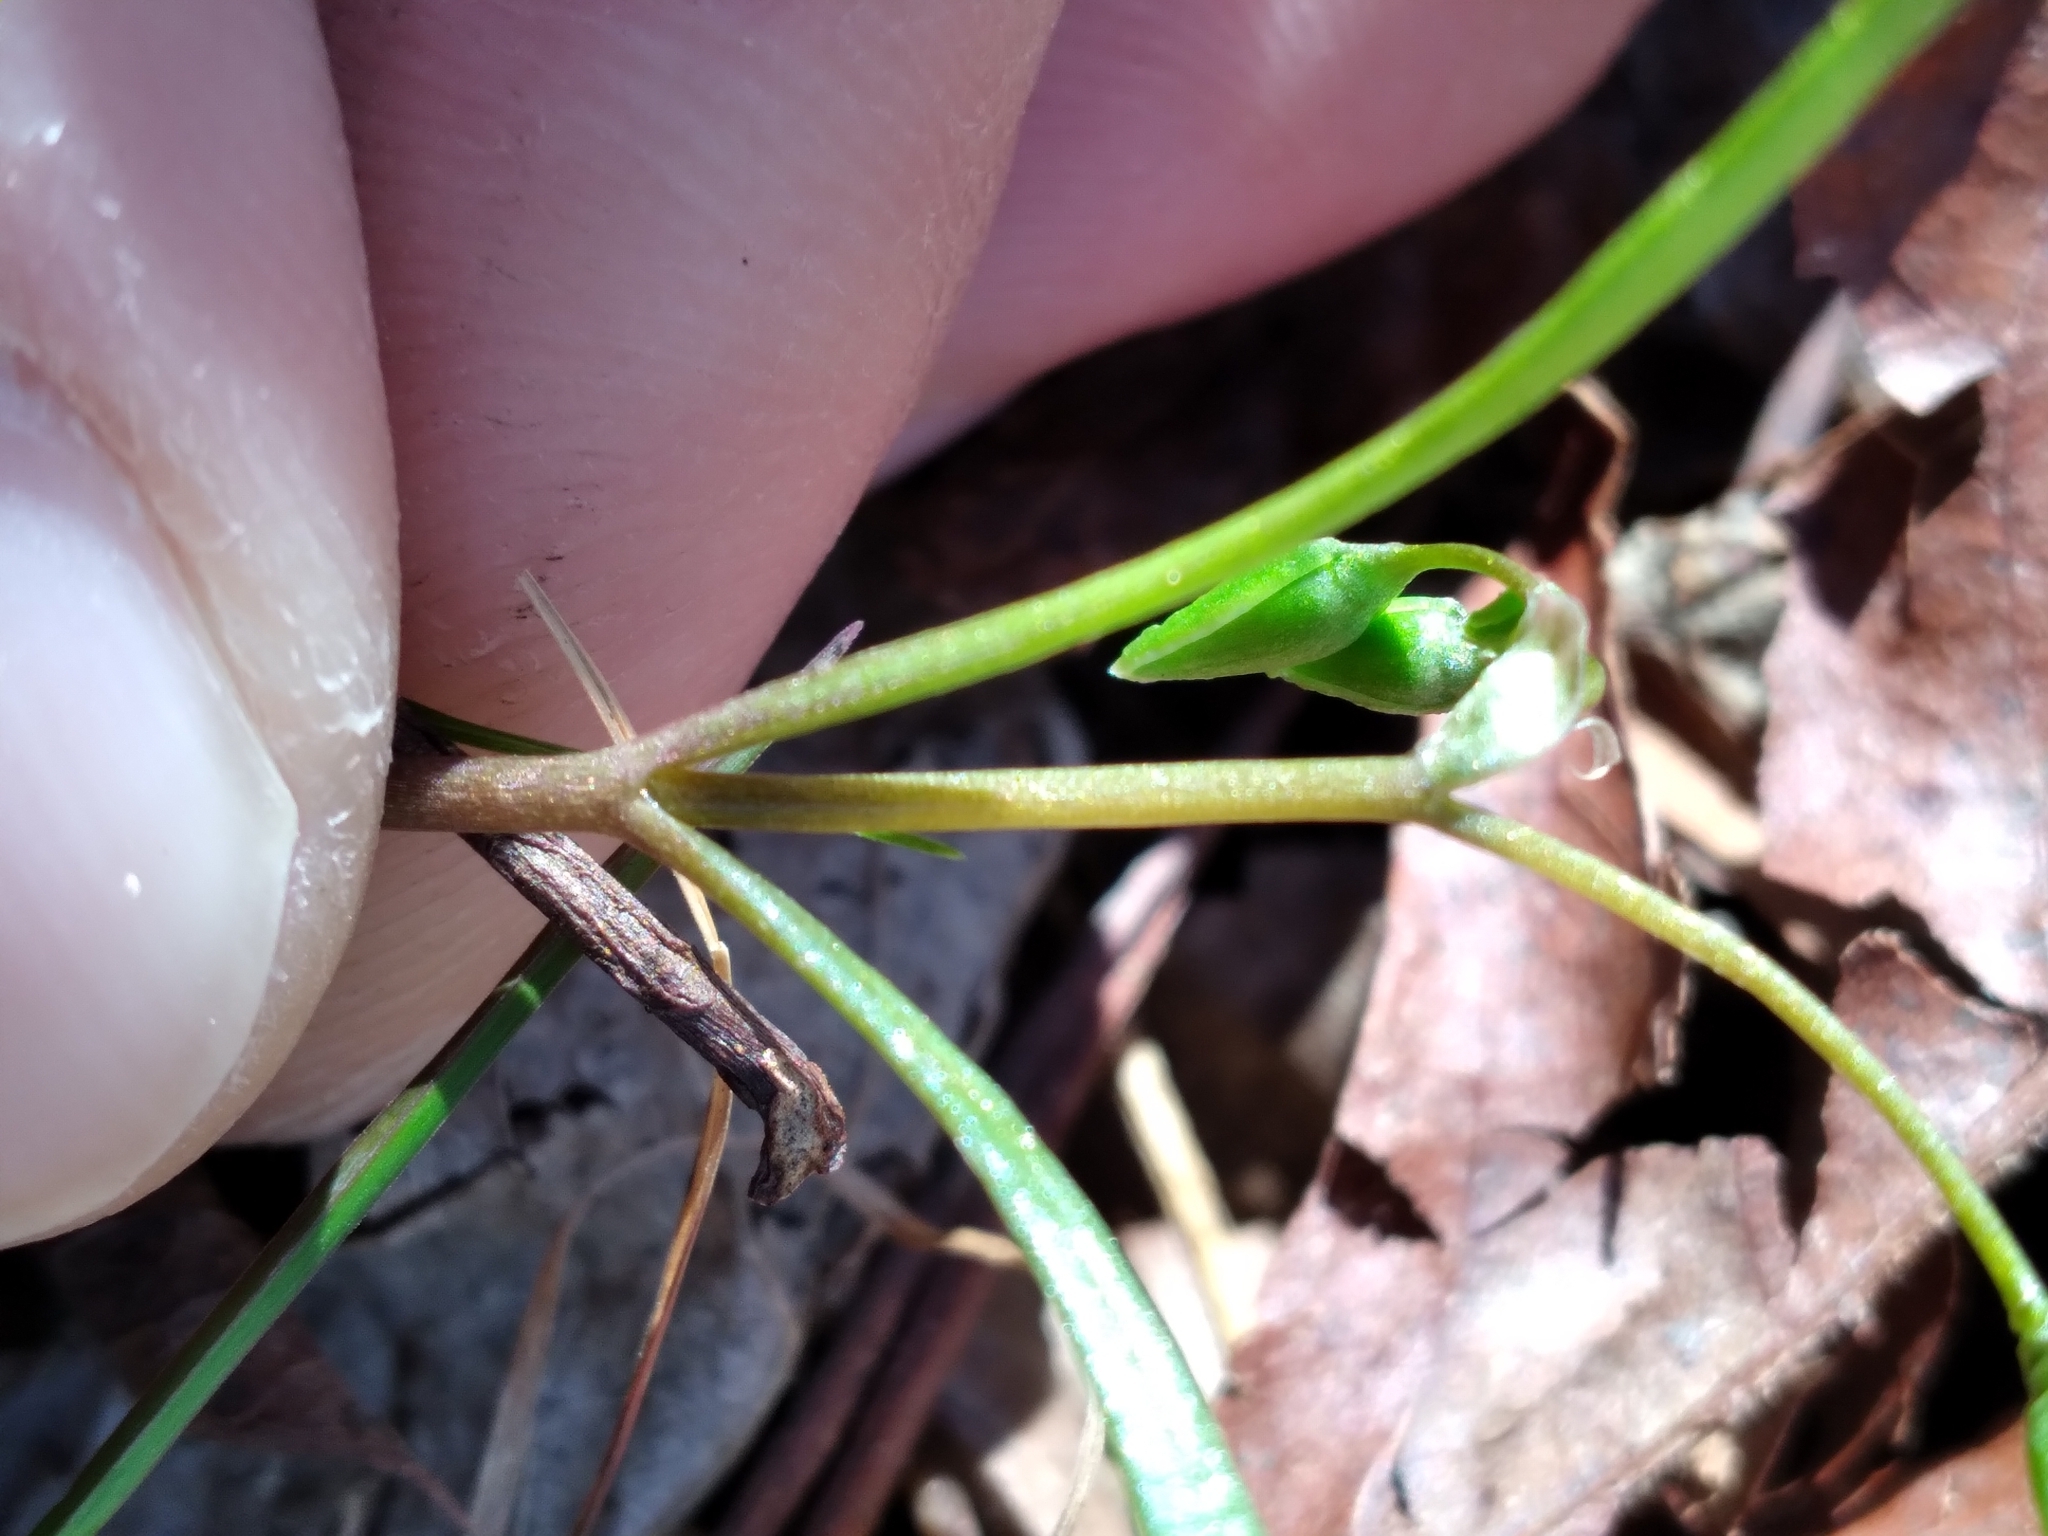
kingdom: Plantae
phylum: Tracheophyta
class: Magnoliopsida
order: Caryophyllales
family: Montiaceae
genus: Claytonia
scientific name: Claytonia virginica
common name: Virginia springbeauty
